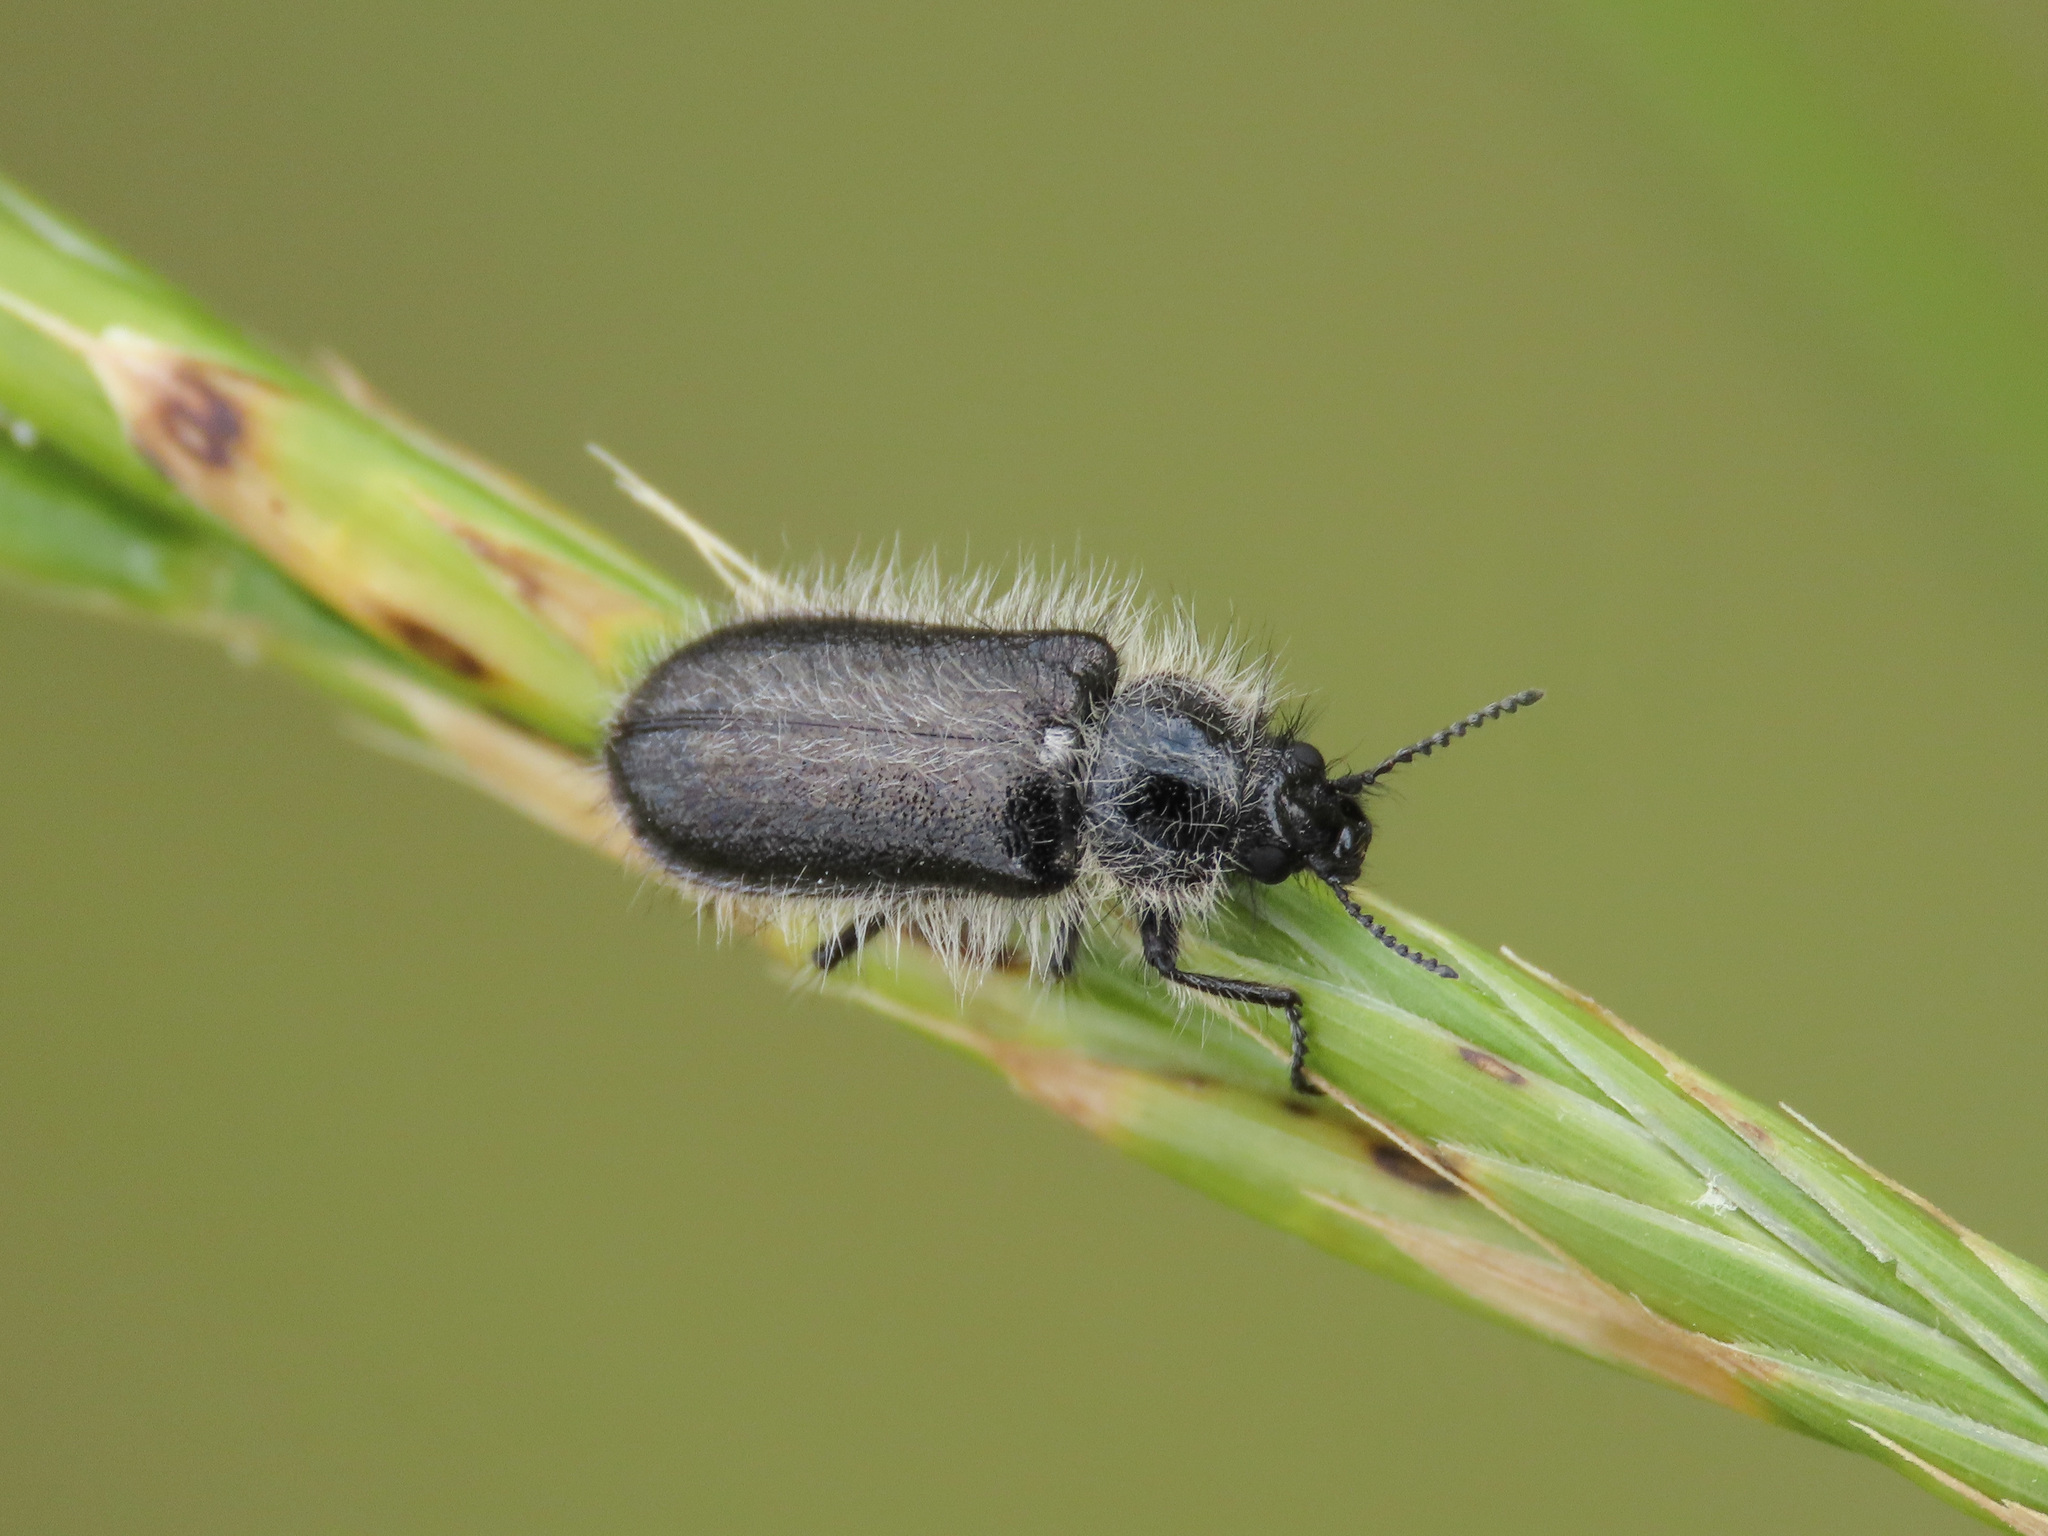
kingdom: Animalia
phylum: Arthropoda
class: Insecta
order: Coleoptera
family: Melyridae
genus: Enicopus
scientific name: Enicopus pilosus
